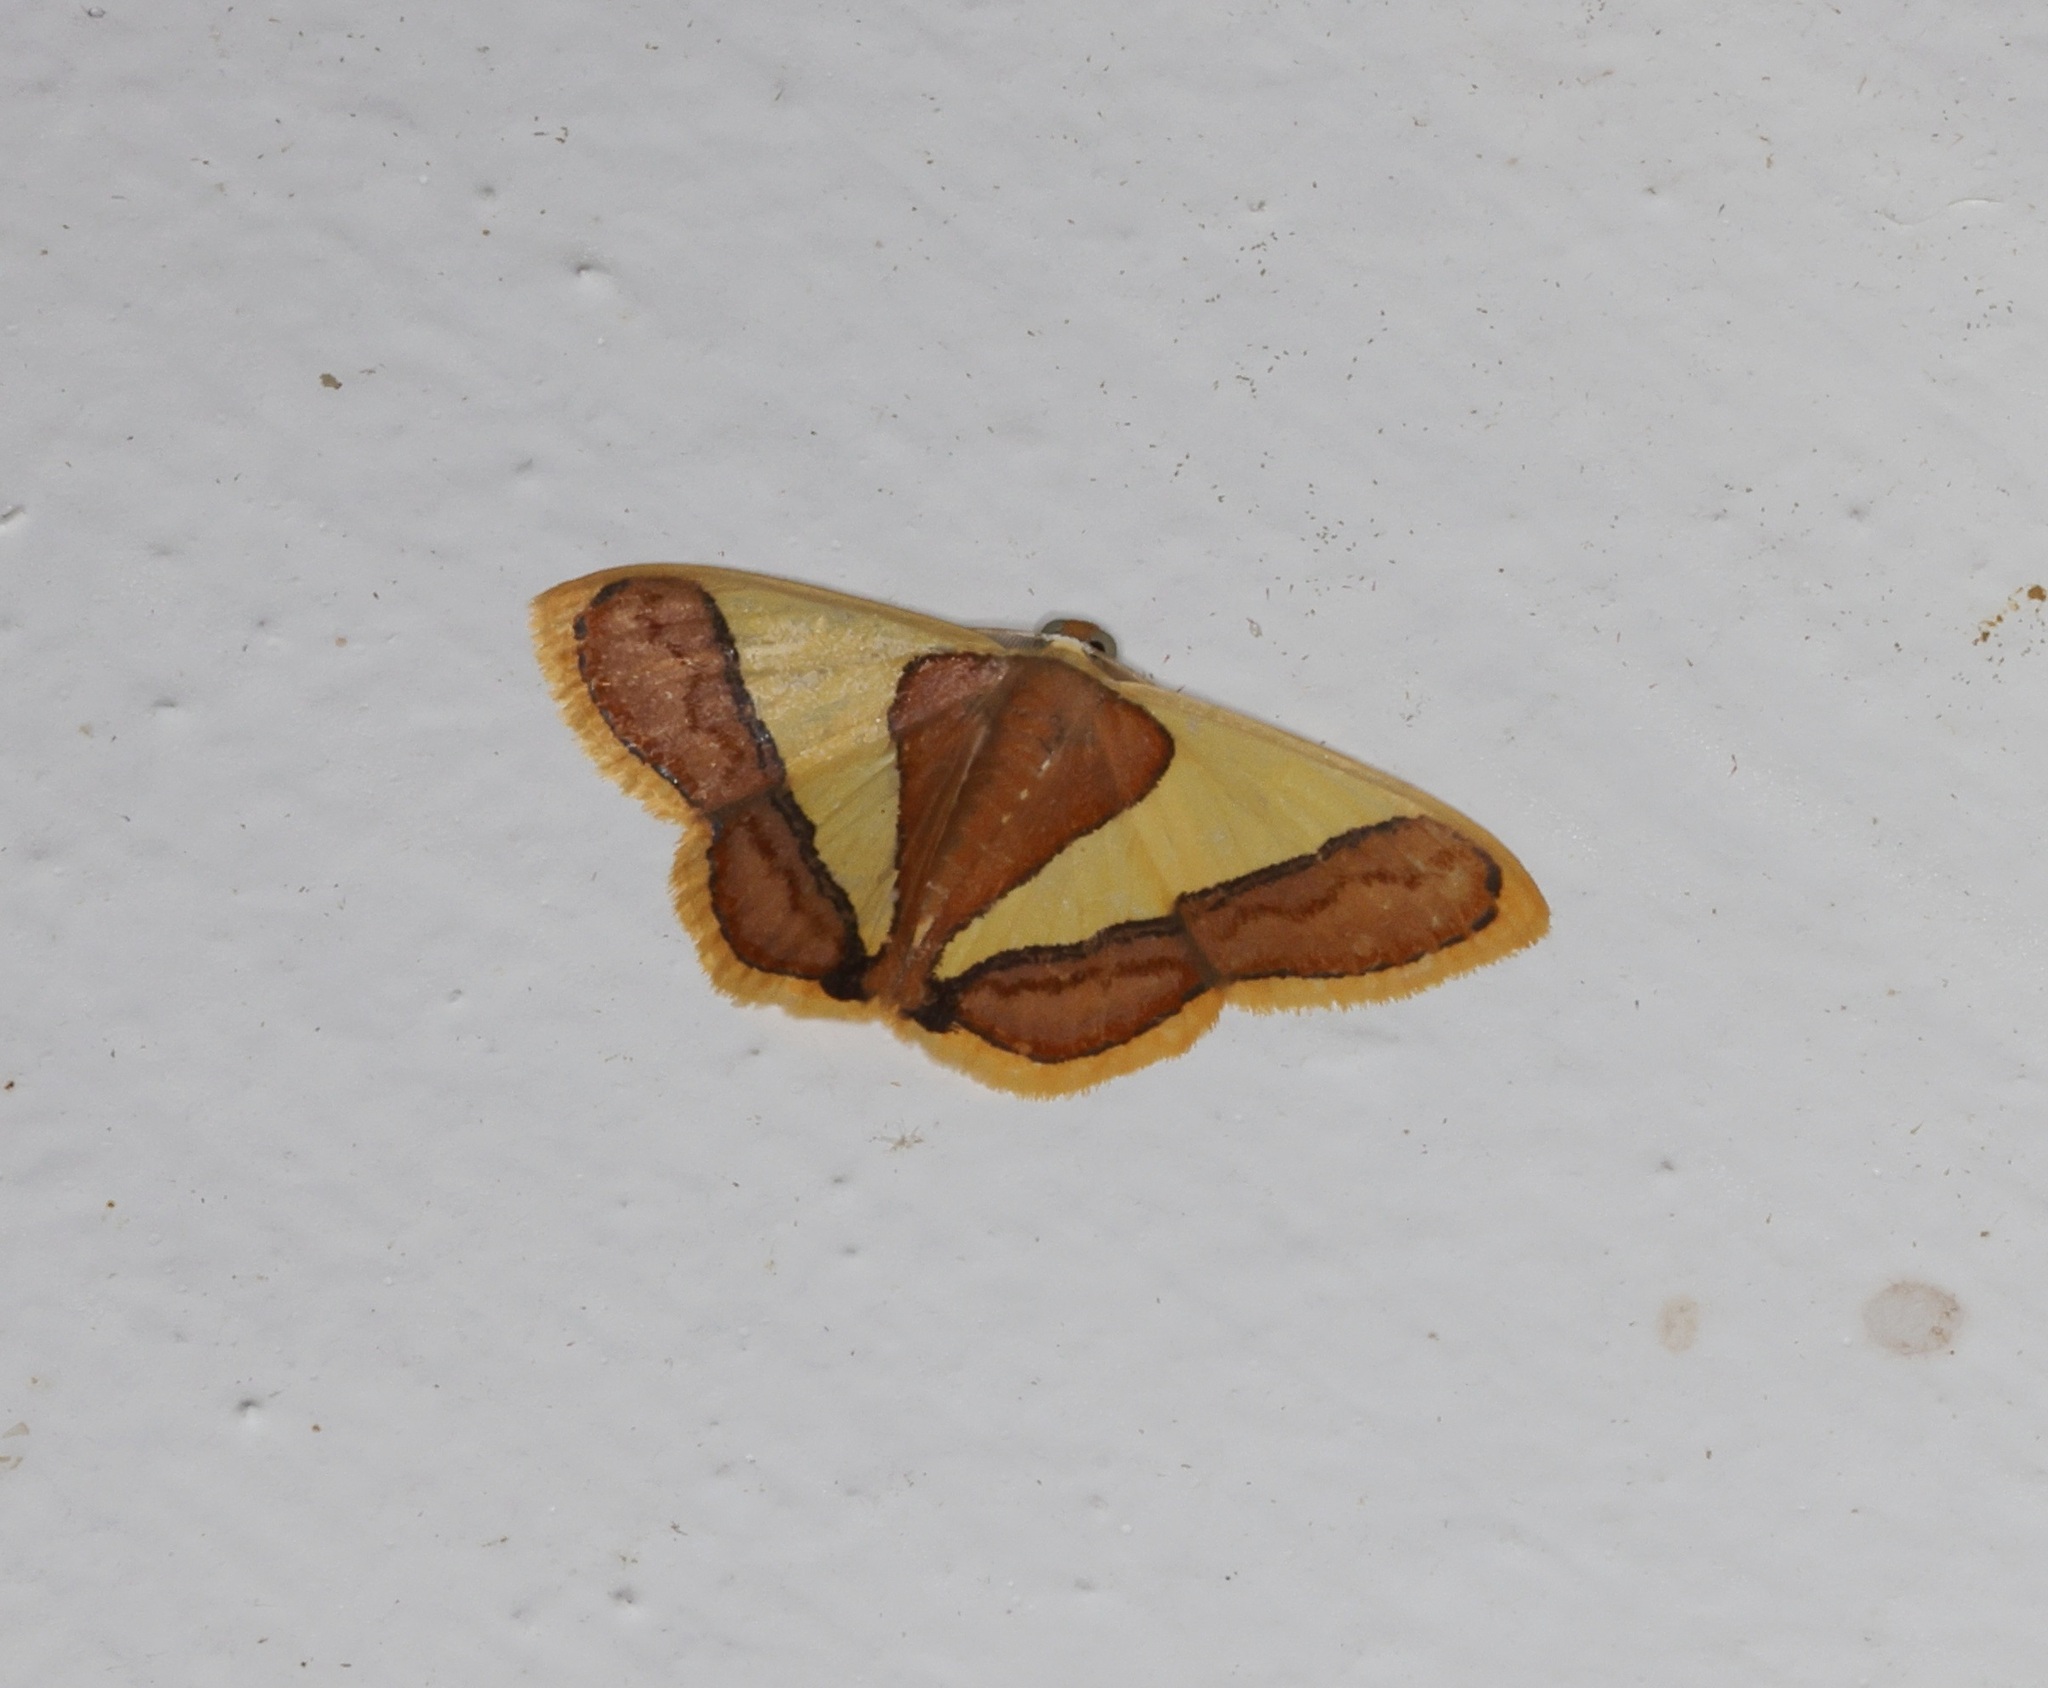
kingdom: Animalia
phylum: Arthropoda
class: Insecta
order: Lepidoptera
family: Geometridae
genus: Plutodes
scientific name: Plutodes exquisita
